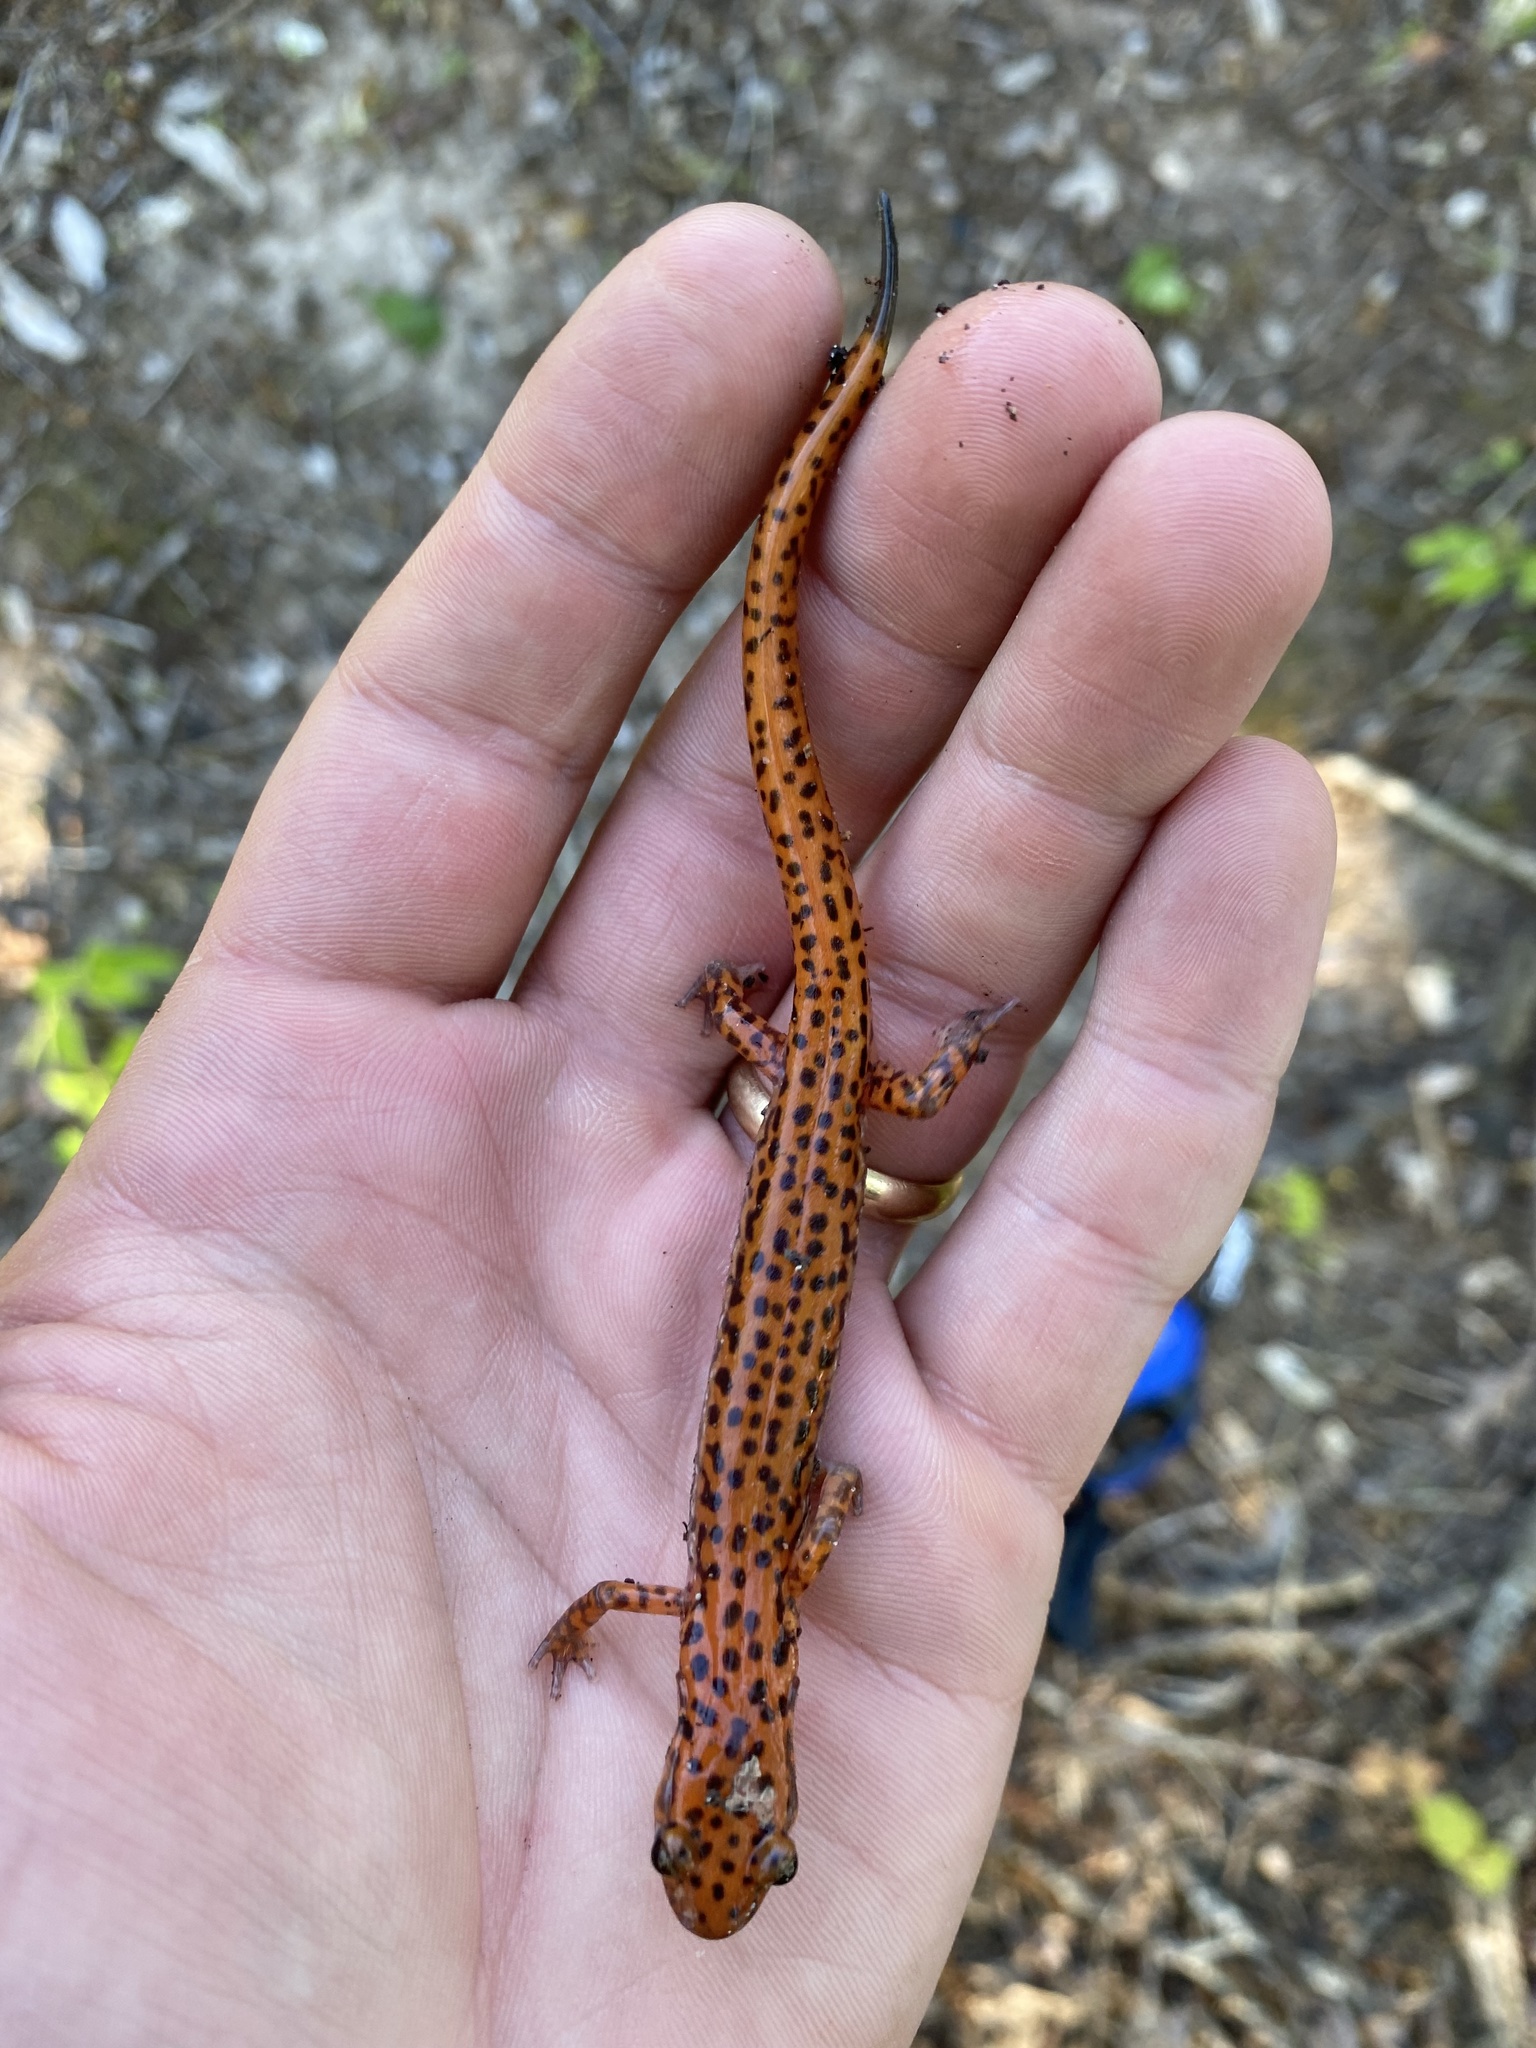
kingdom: Animalia
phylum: Chordata
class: Amphibia
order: Caudata
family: Plethodontidae
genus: Eurycea
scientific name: Eurycea lucifuga
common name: Cave salamander
